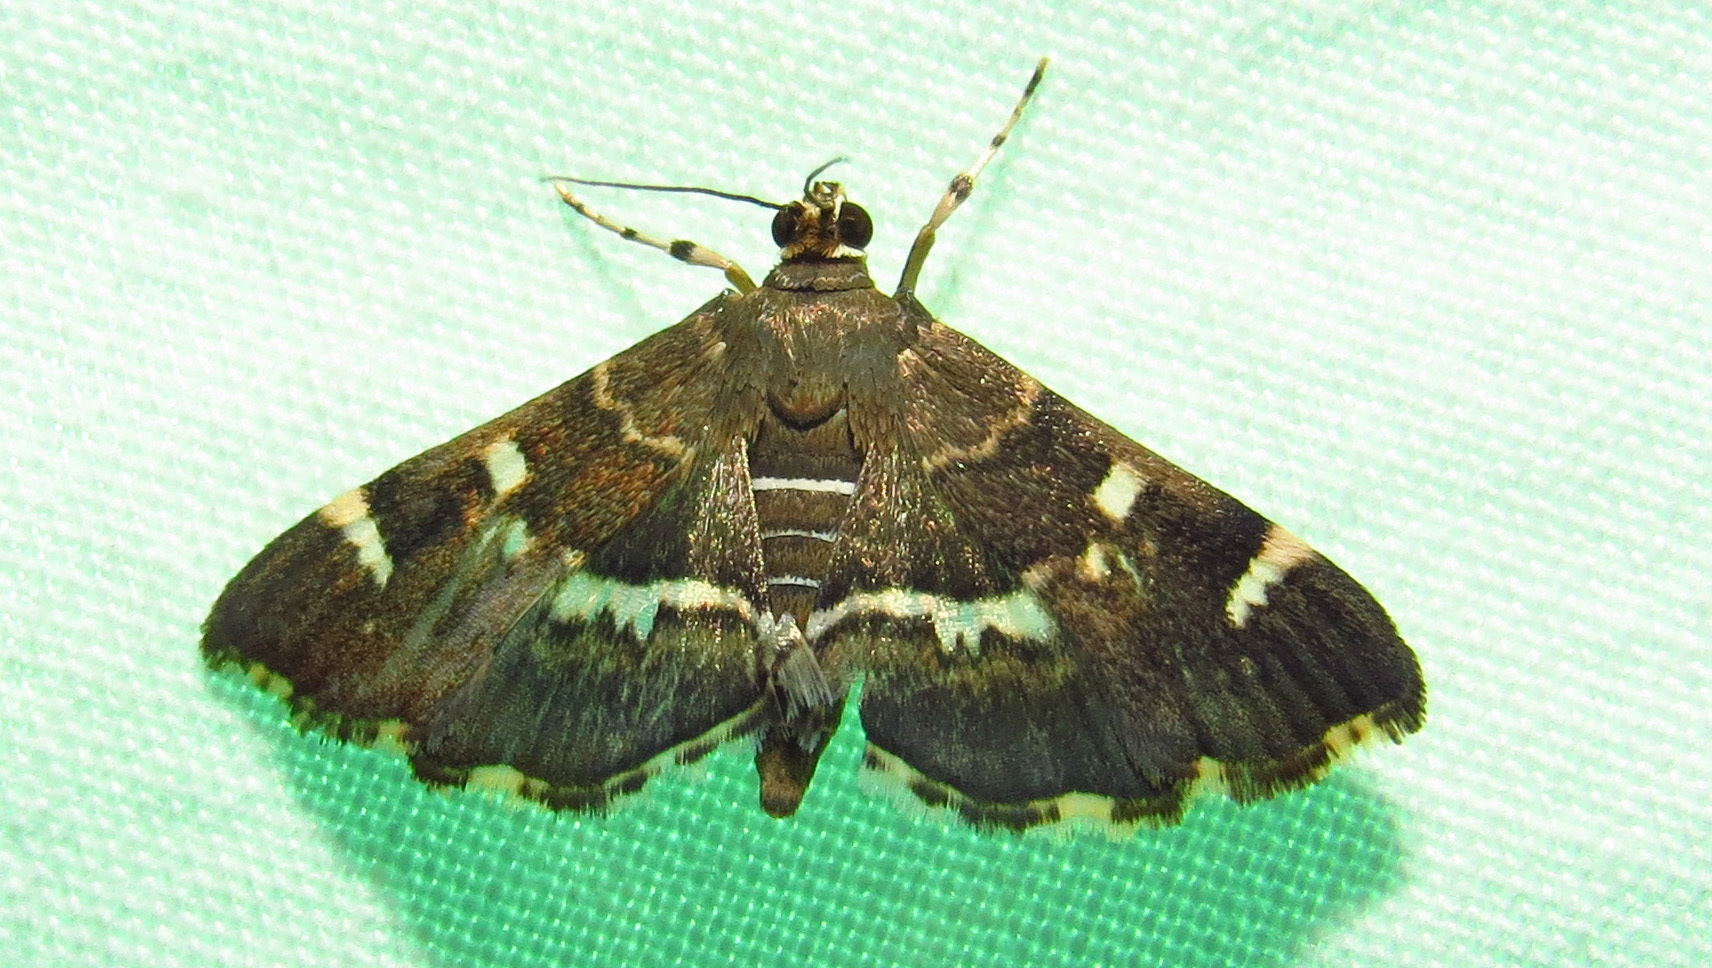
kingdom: Animalia
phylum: Arthropoda
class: Insecta
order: Lepidoptera
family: Crambidae
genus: Hymenia
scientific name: Hymenia perspectalis
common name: Spotted beet webworm
